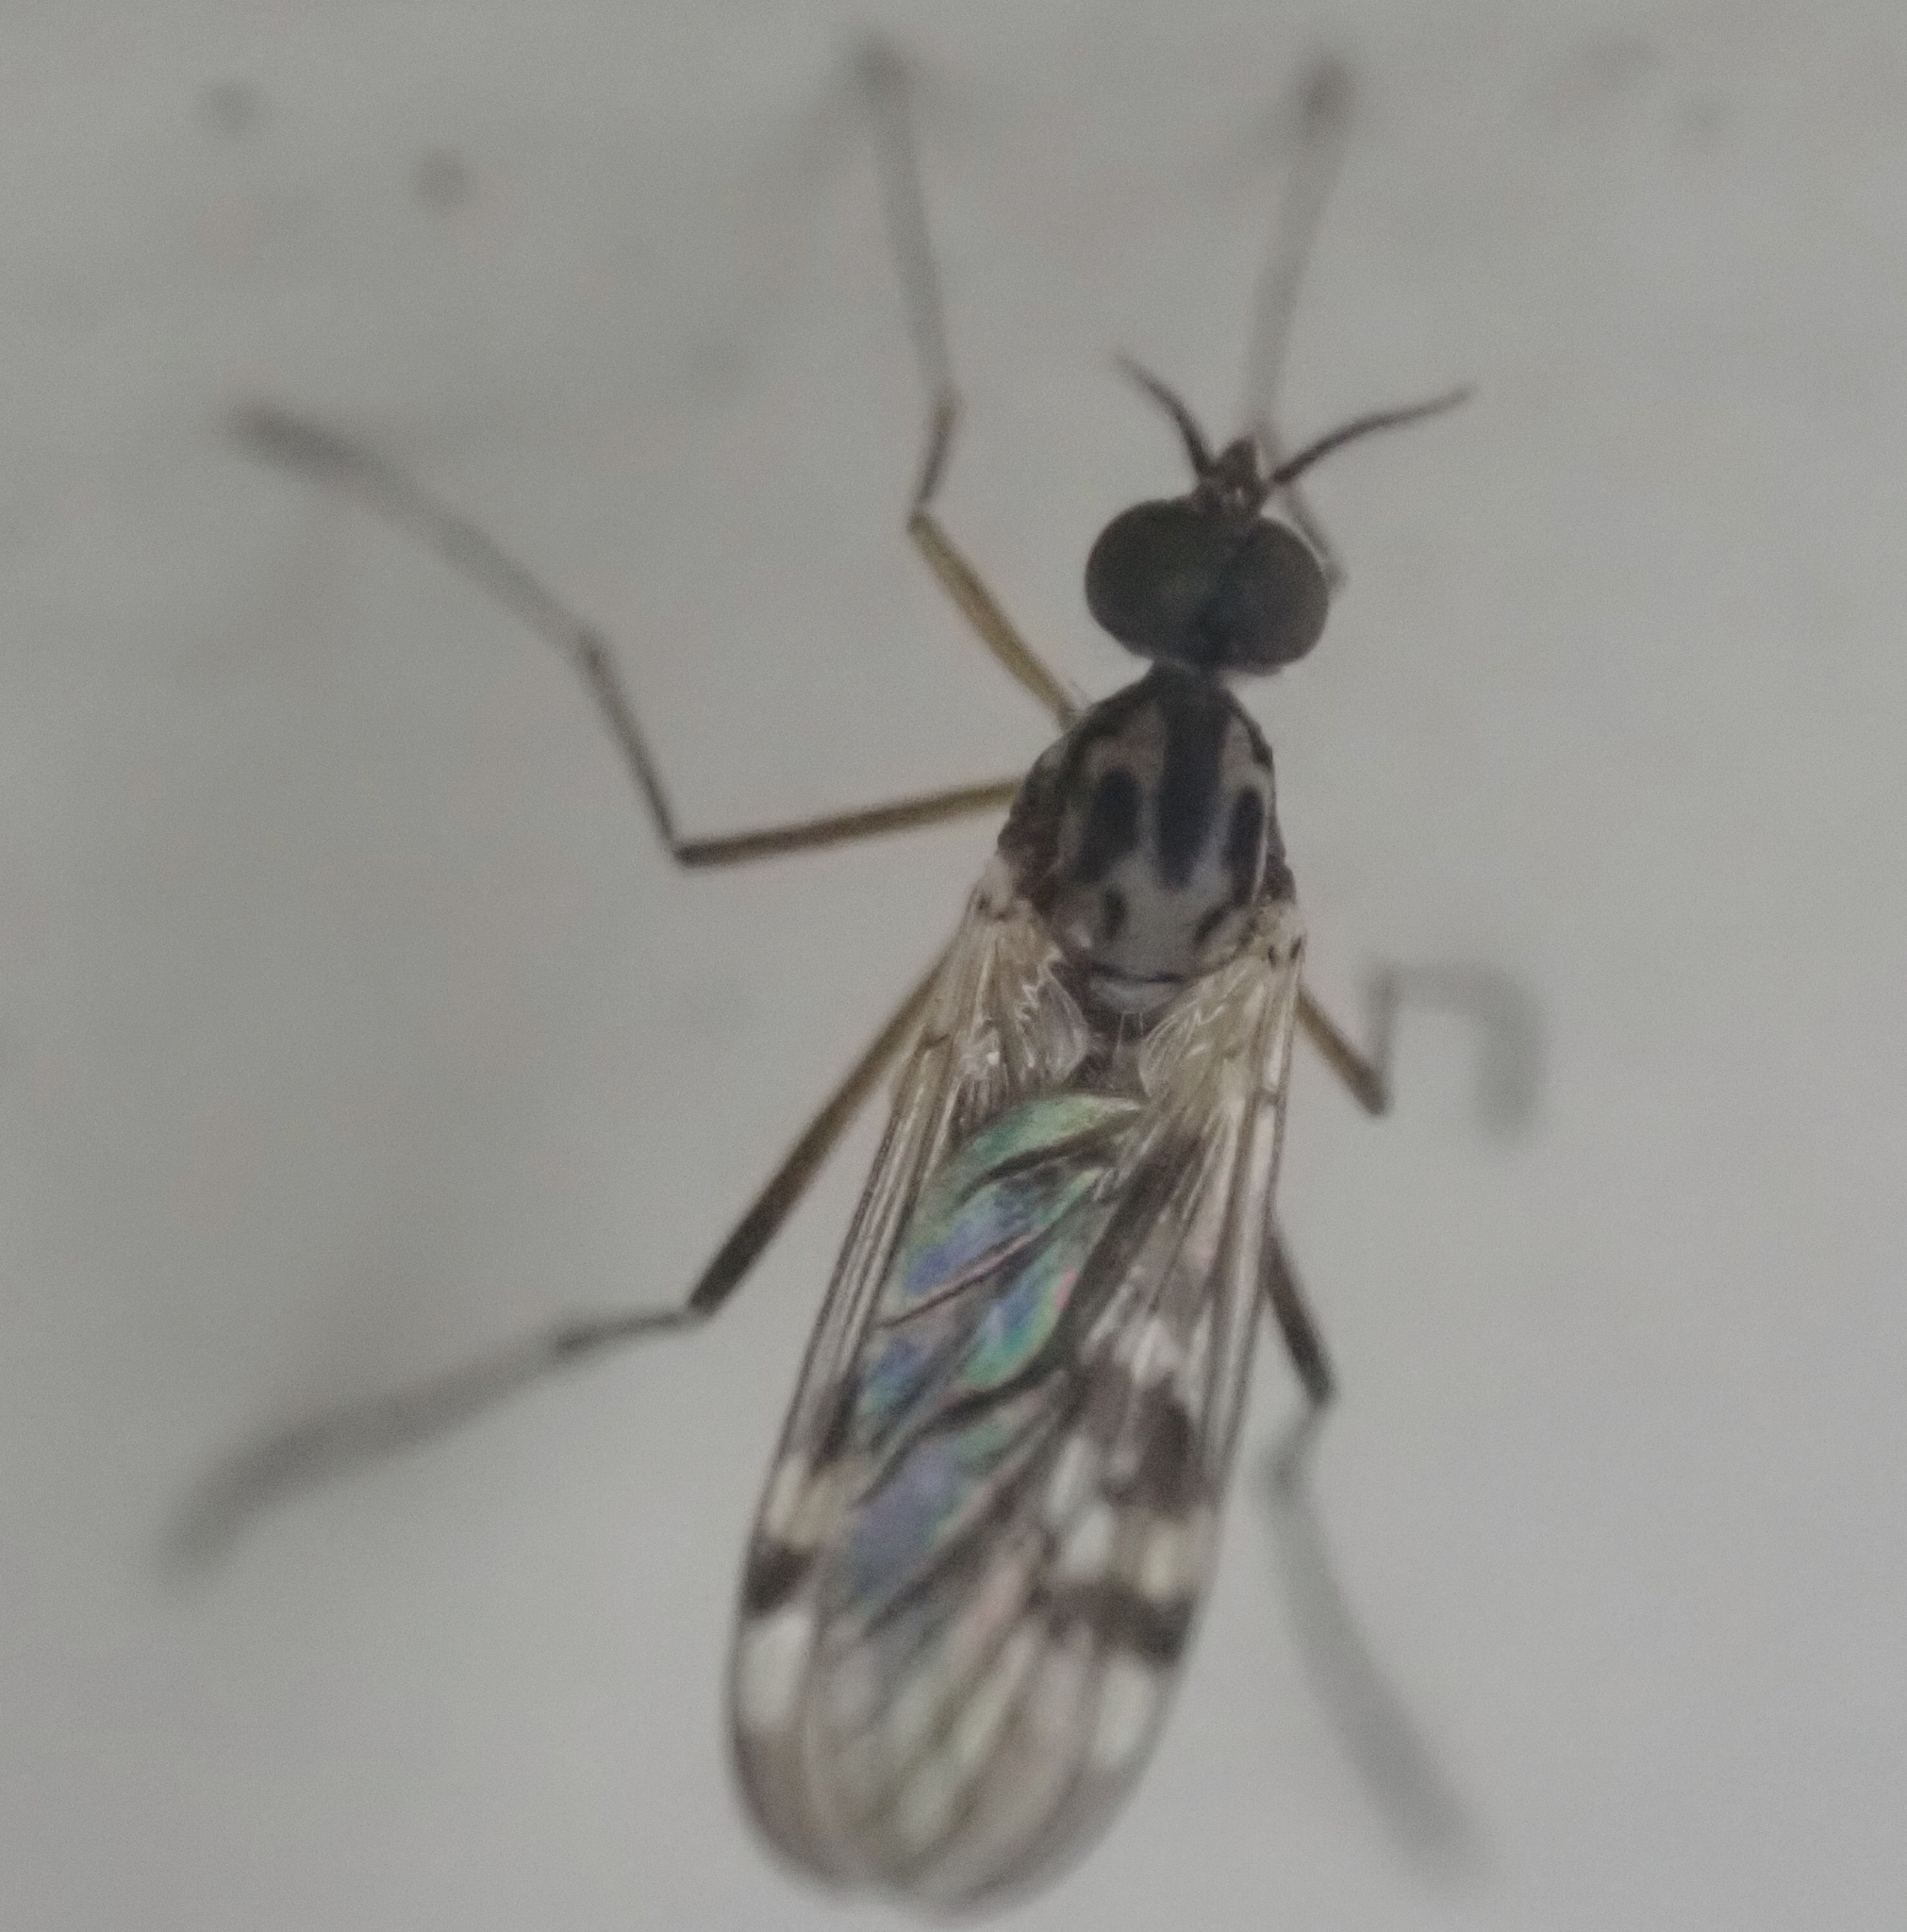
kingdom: Animalia
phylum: Arthropoda
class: Insecta
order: Diptera
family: Anisopodidae
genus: Sylvicola
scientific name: Sylvicola notialis
